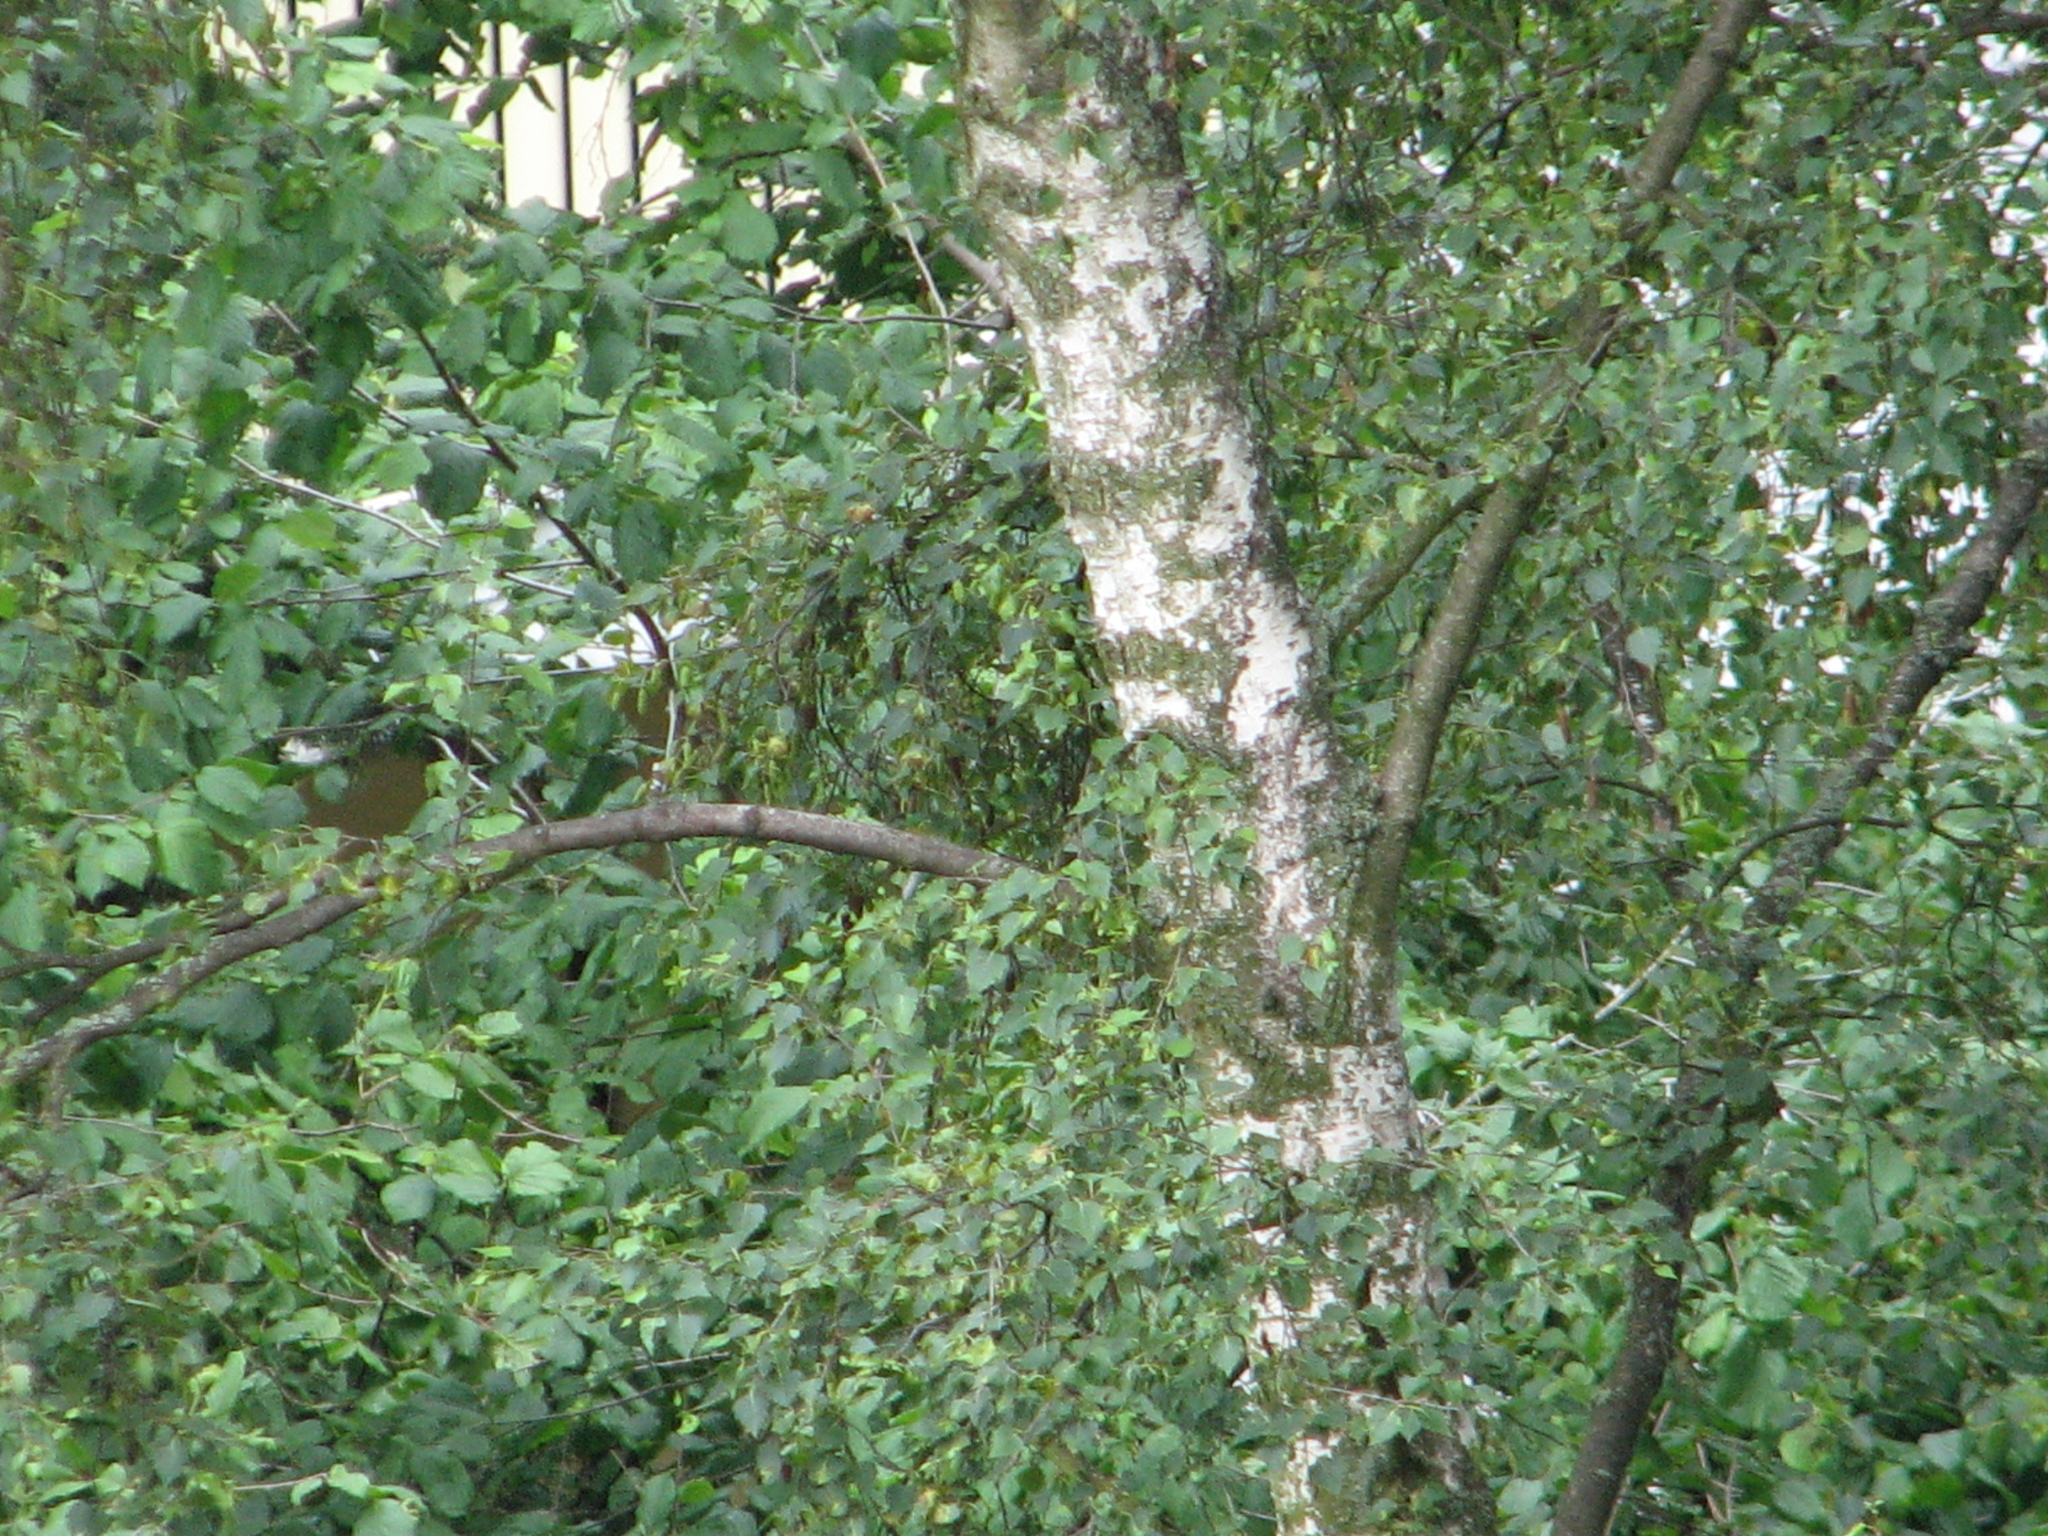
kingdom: Plantae
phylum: Tracheophyta
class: Magnoliopsida
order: Fagales
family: Betulaceae
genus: Betula
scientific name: Betula pendula
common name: Silver birch
